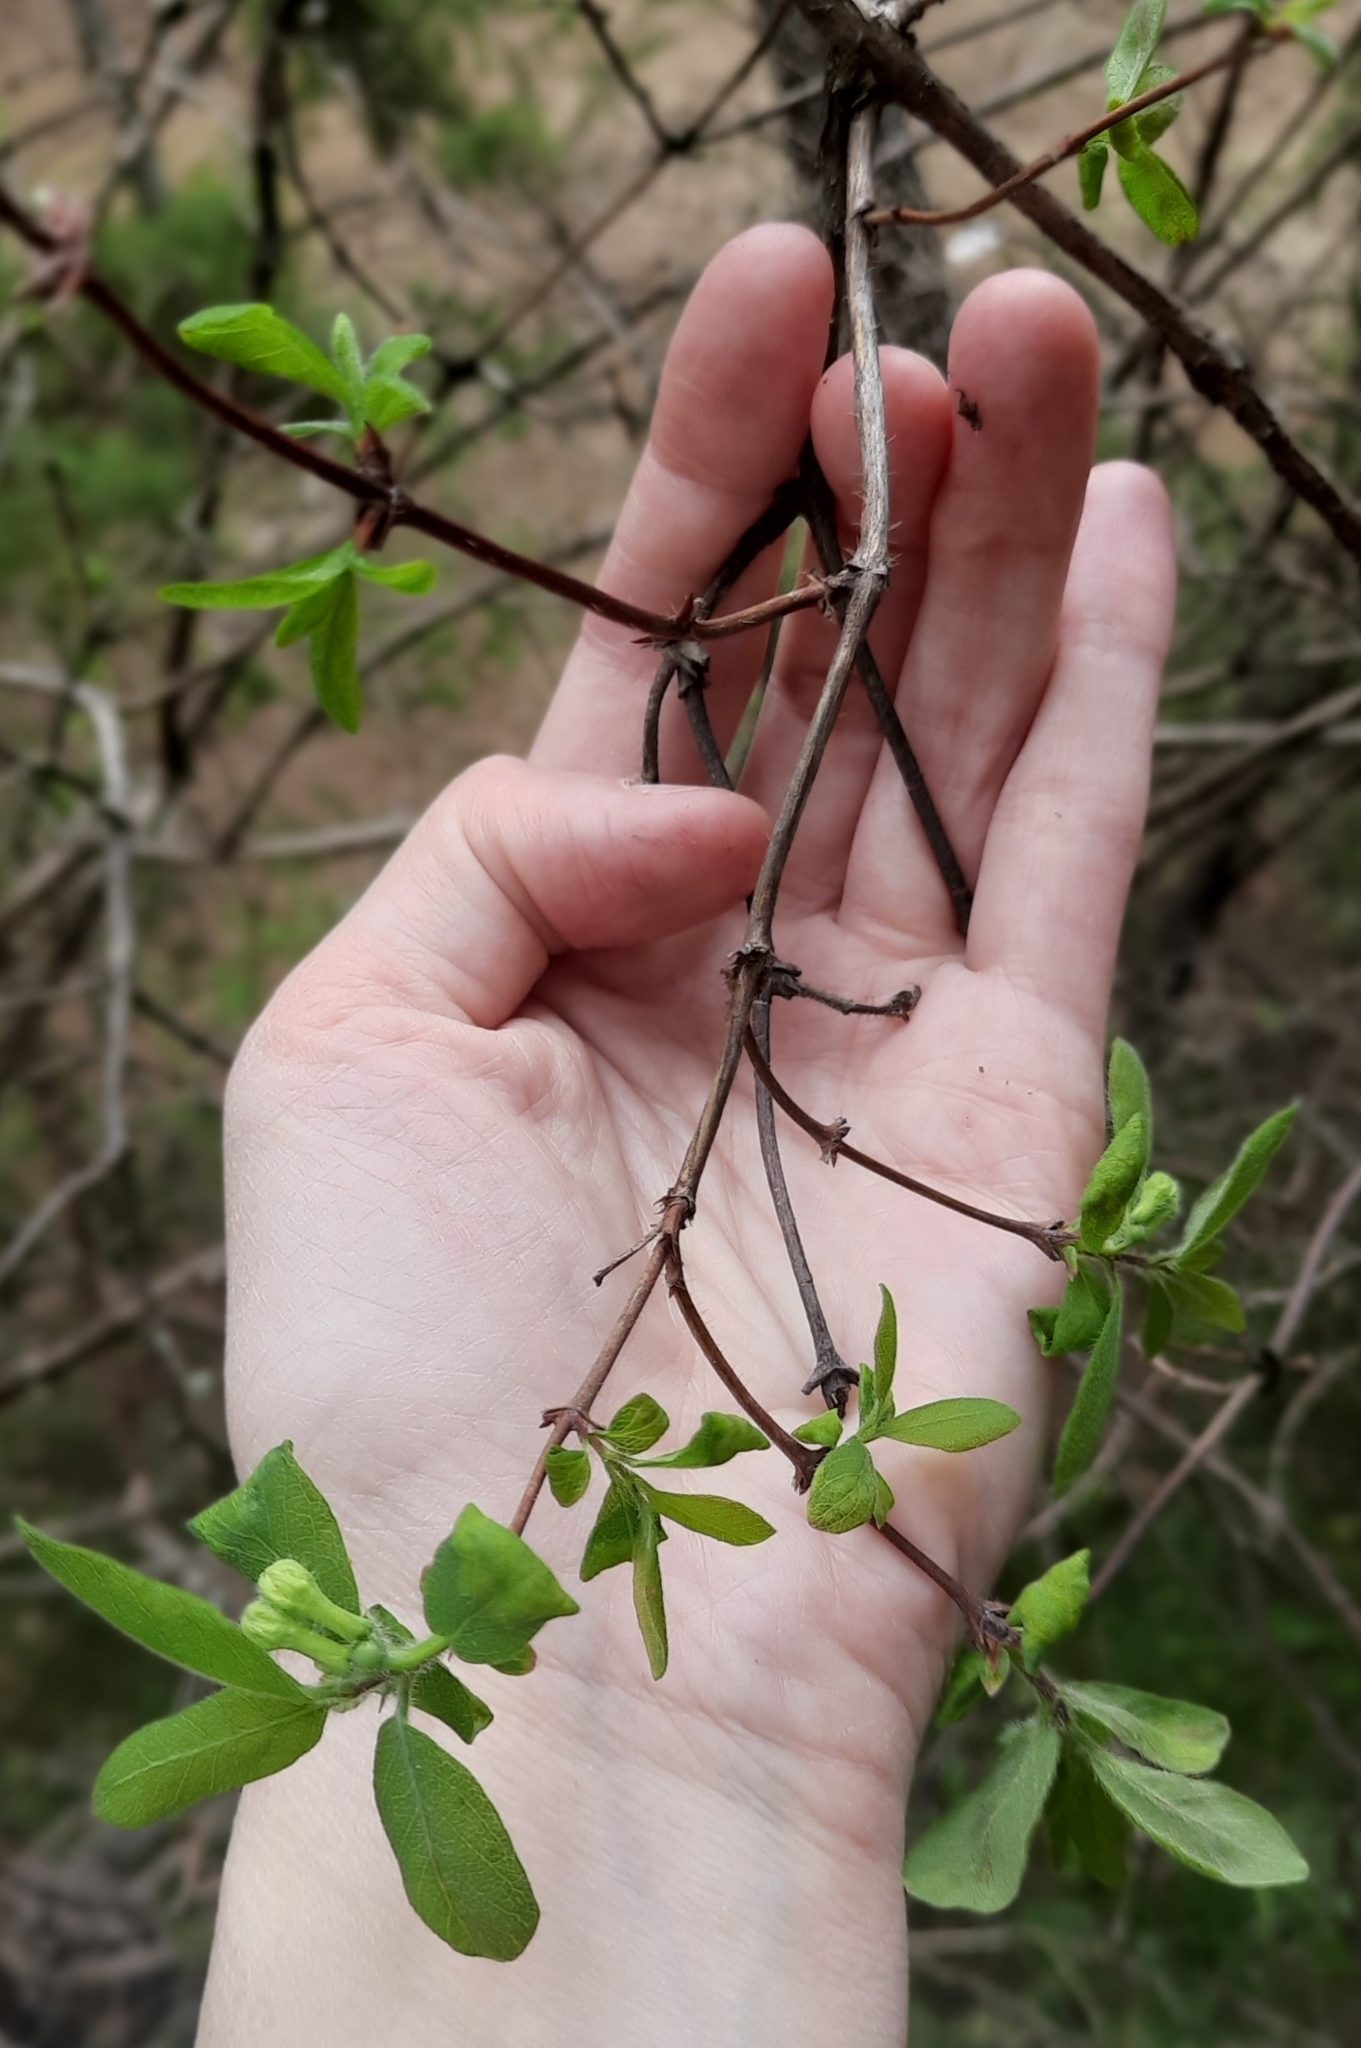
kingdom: Plantae
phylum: Tracheophyta
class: Magnoliopsida
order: Dipsacales
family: Caprifoliaceae
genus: Lonicera
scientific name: Lonicera caerulea
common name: Blue honeysuckle
